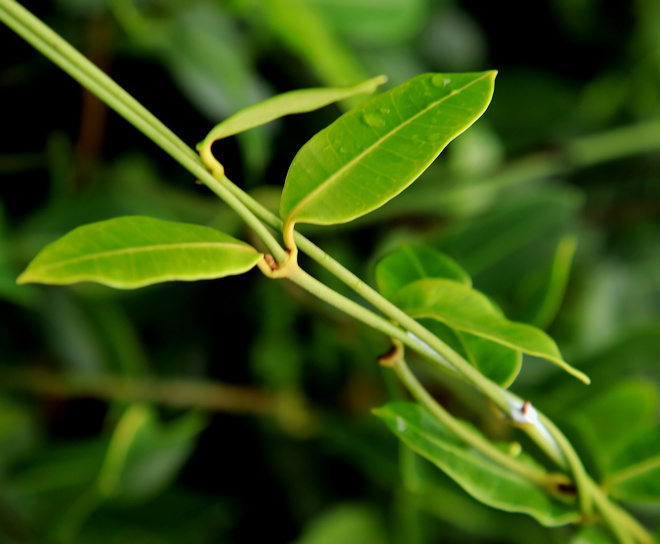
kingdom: Plantae
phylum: Tracheophyta
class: Magnoliopsida
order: Gentianales
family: Apocynaceae
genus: Secamone
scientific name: Secamone alpini
